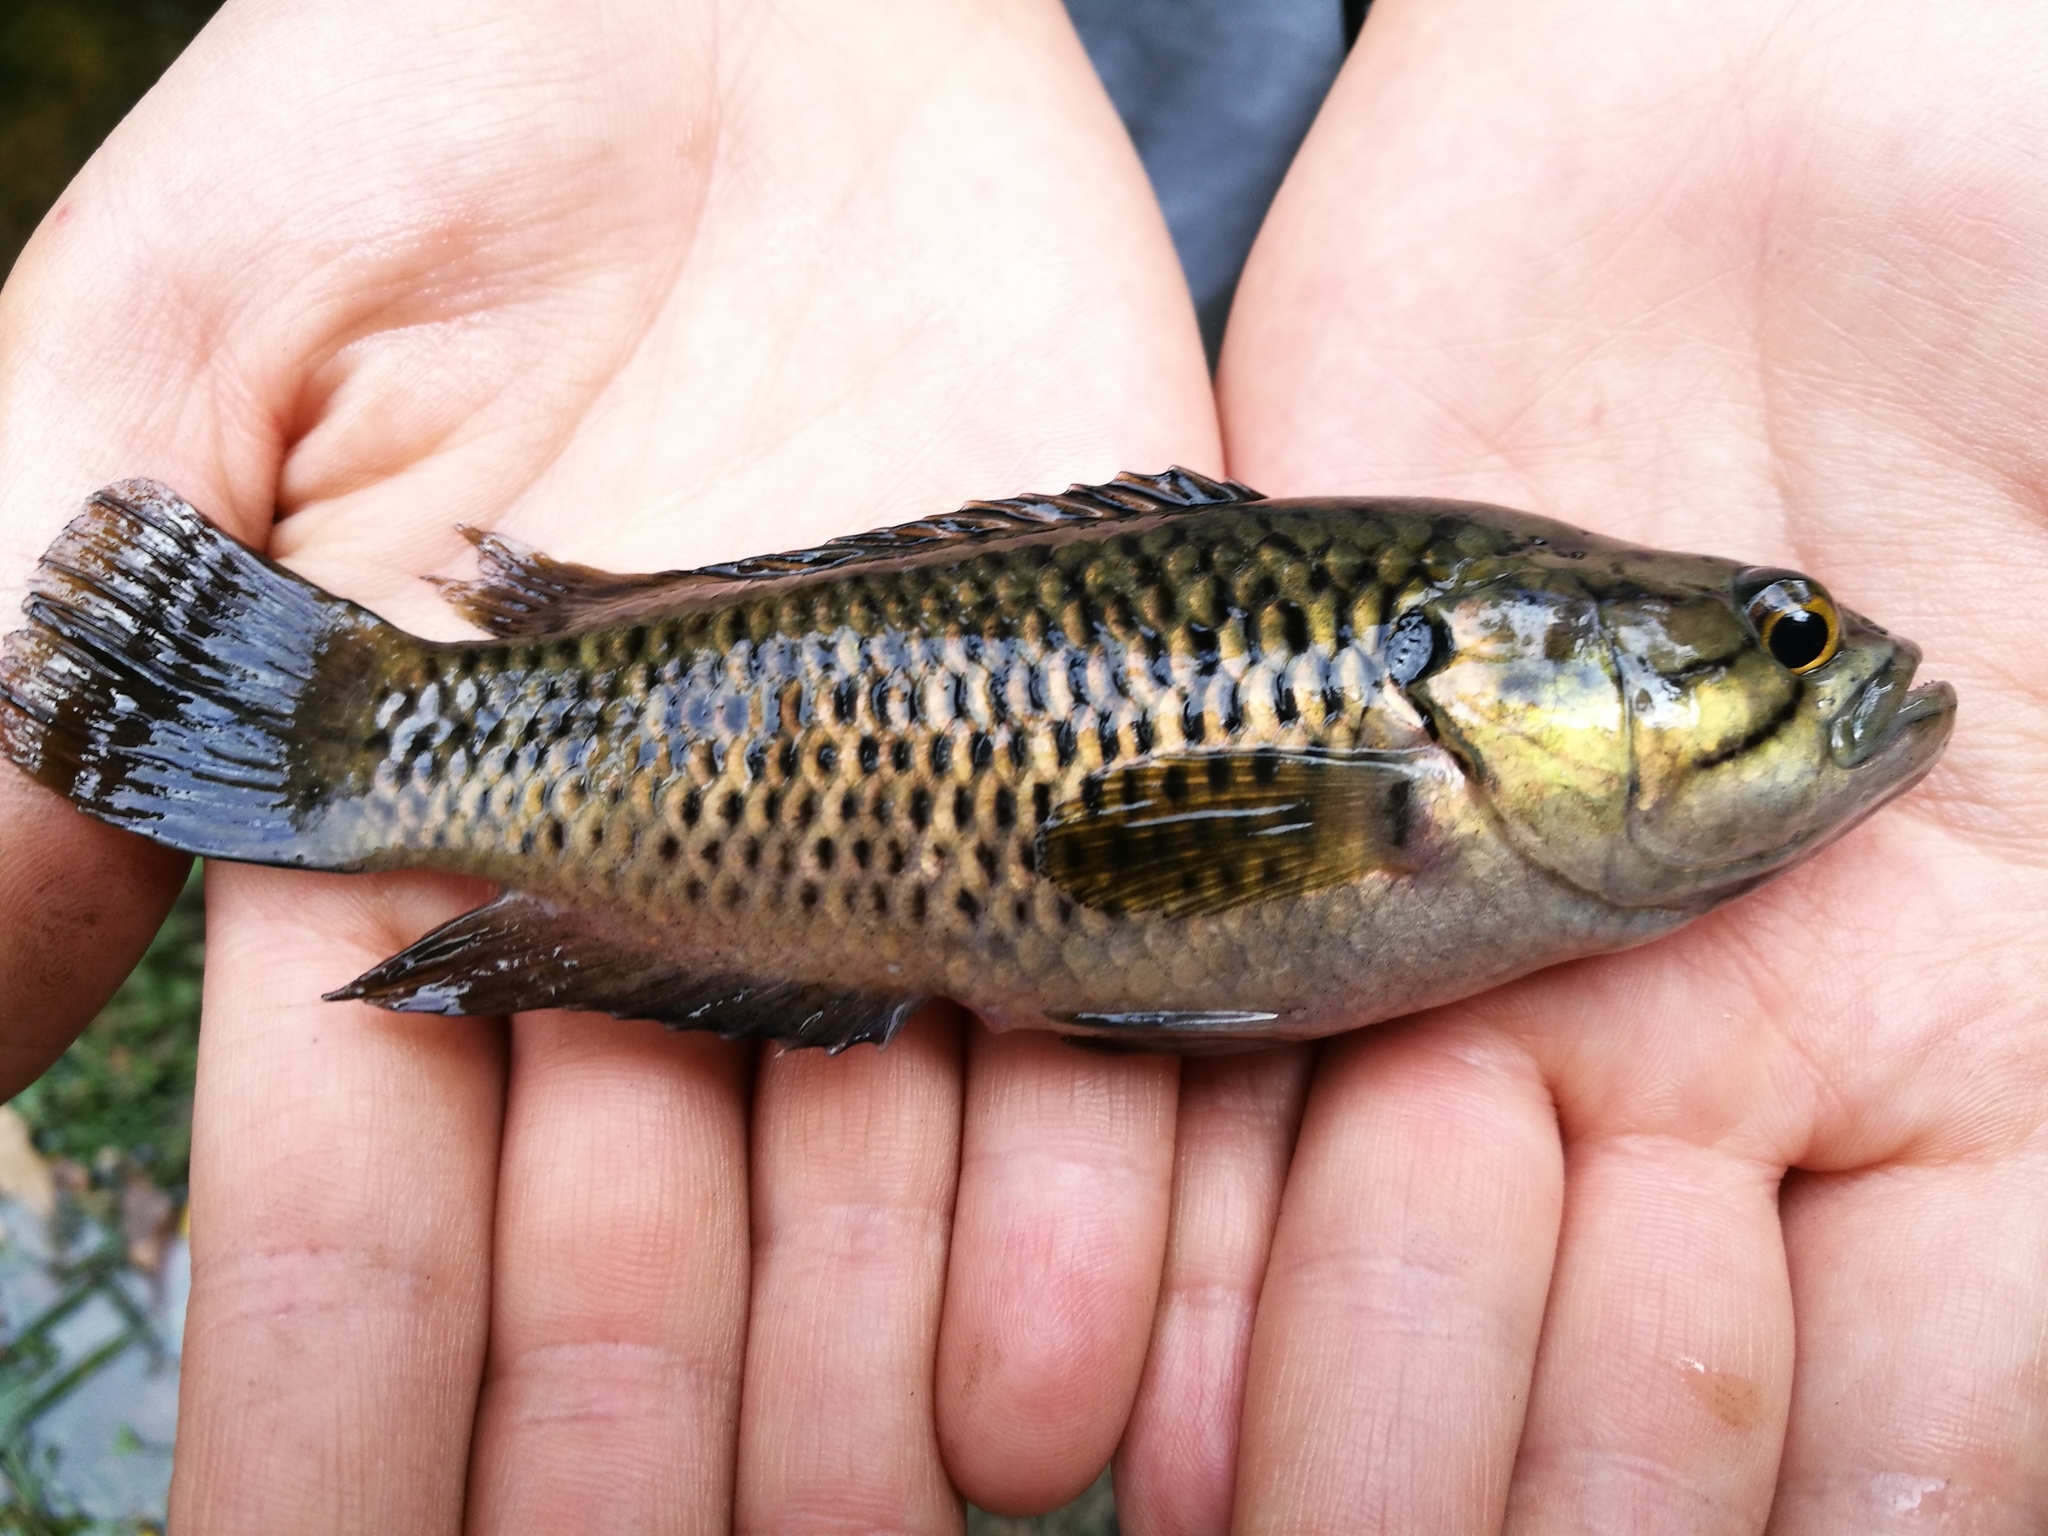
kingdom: Animalia
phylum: Chordata
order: Perciformes
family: Anabantidae
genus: Sandelia
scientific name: Sandelia capensis
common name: Cape kurper
